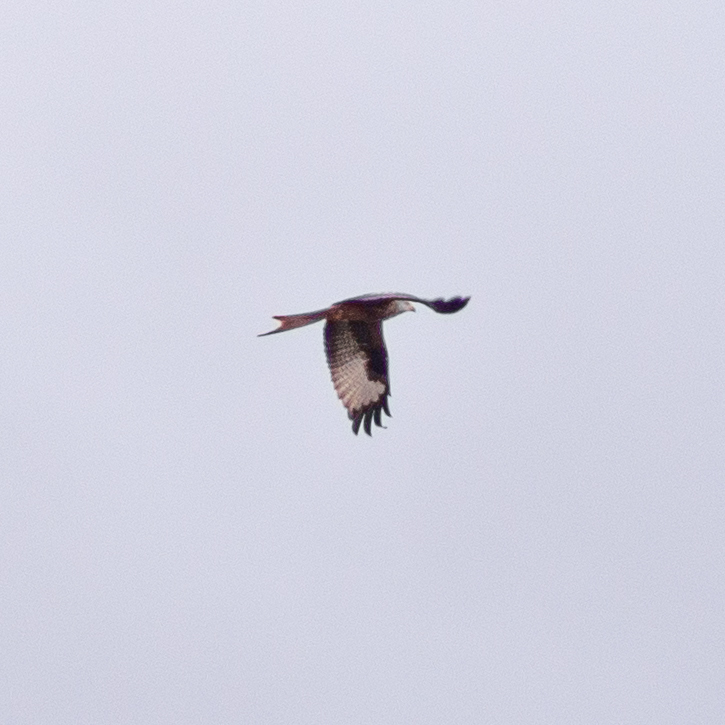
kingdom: Animalia
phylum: Chordata
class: Aves
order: Accipitriformes
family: Accipitridae
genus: Milvus
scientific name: Milvus milvus
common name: Red kite
